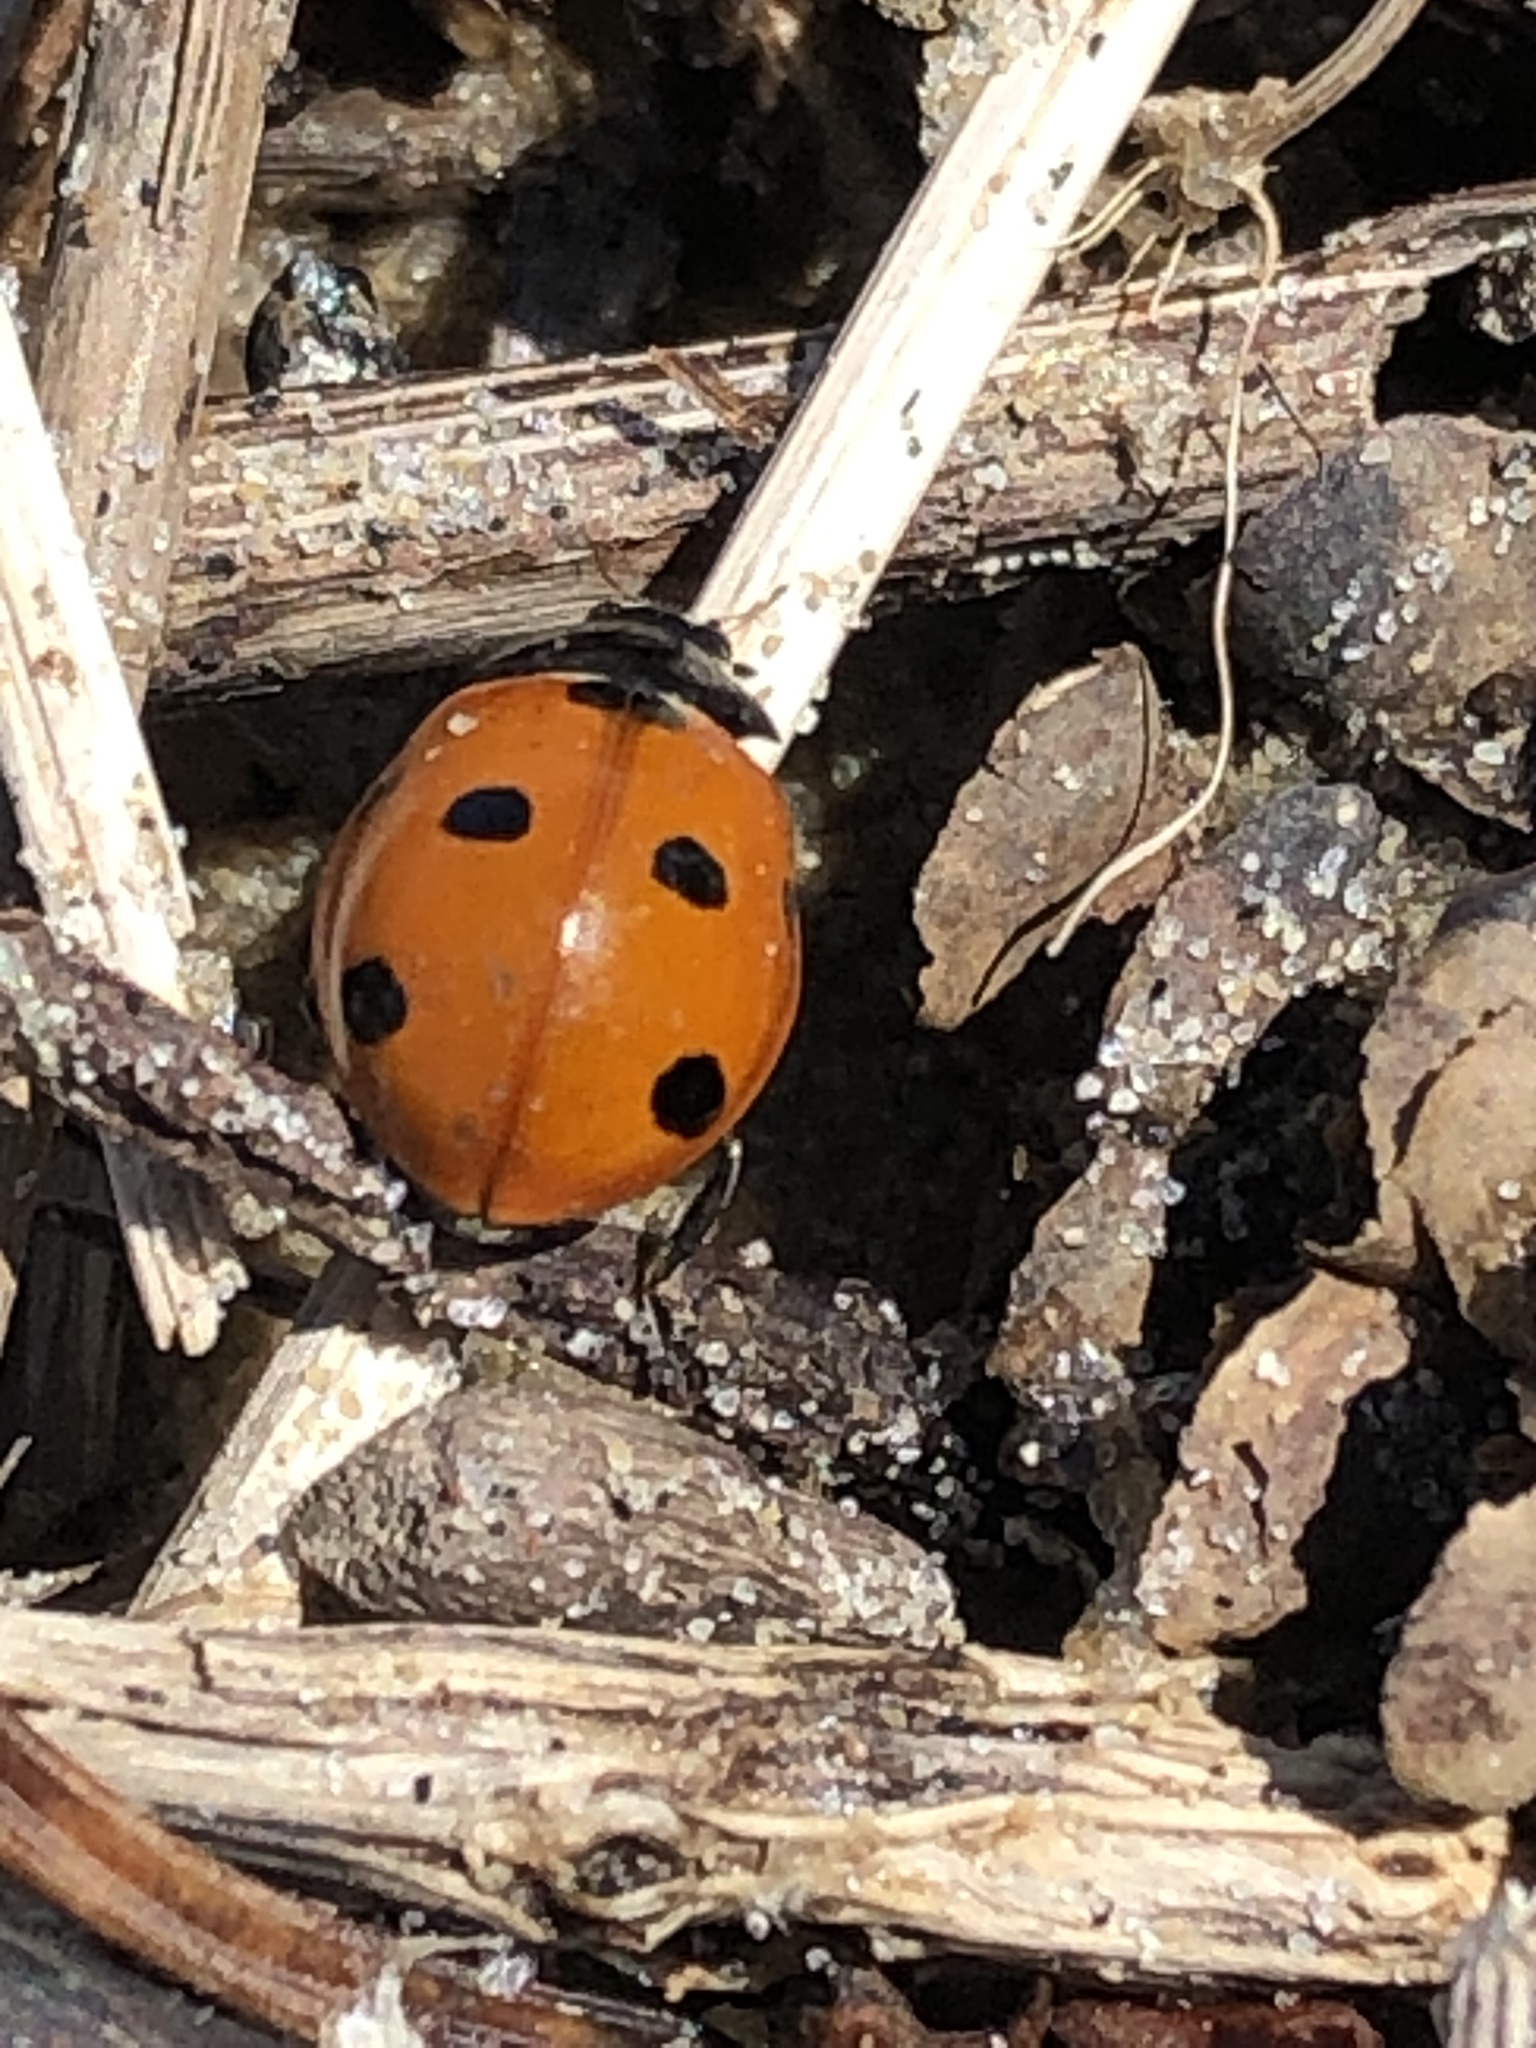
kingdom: Animalia
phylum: Arthropoda
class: Insecta
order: Coleoptera
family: Coccinellidae
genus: Coccinella
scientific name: Coccinella septempunctata
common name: Sevenspotted lady beetle
